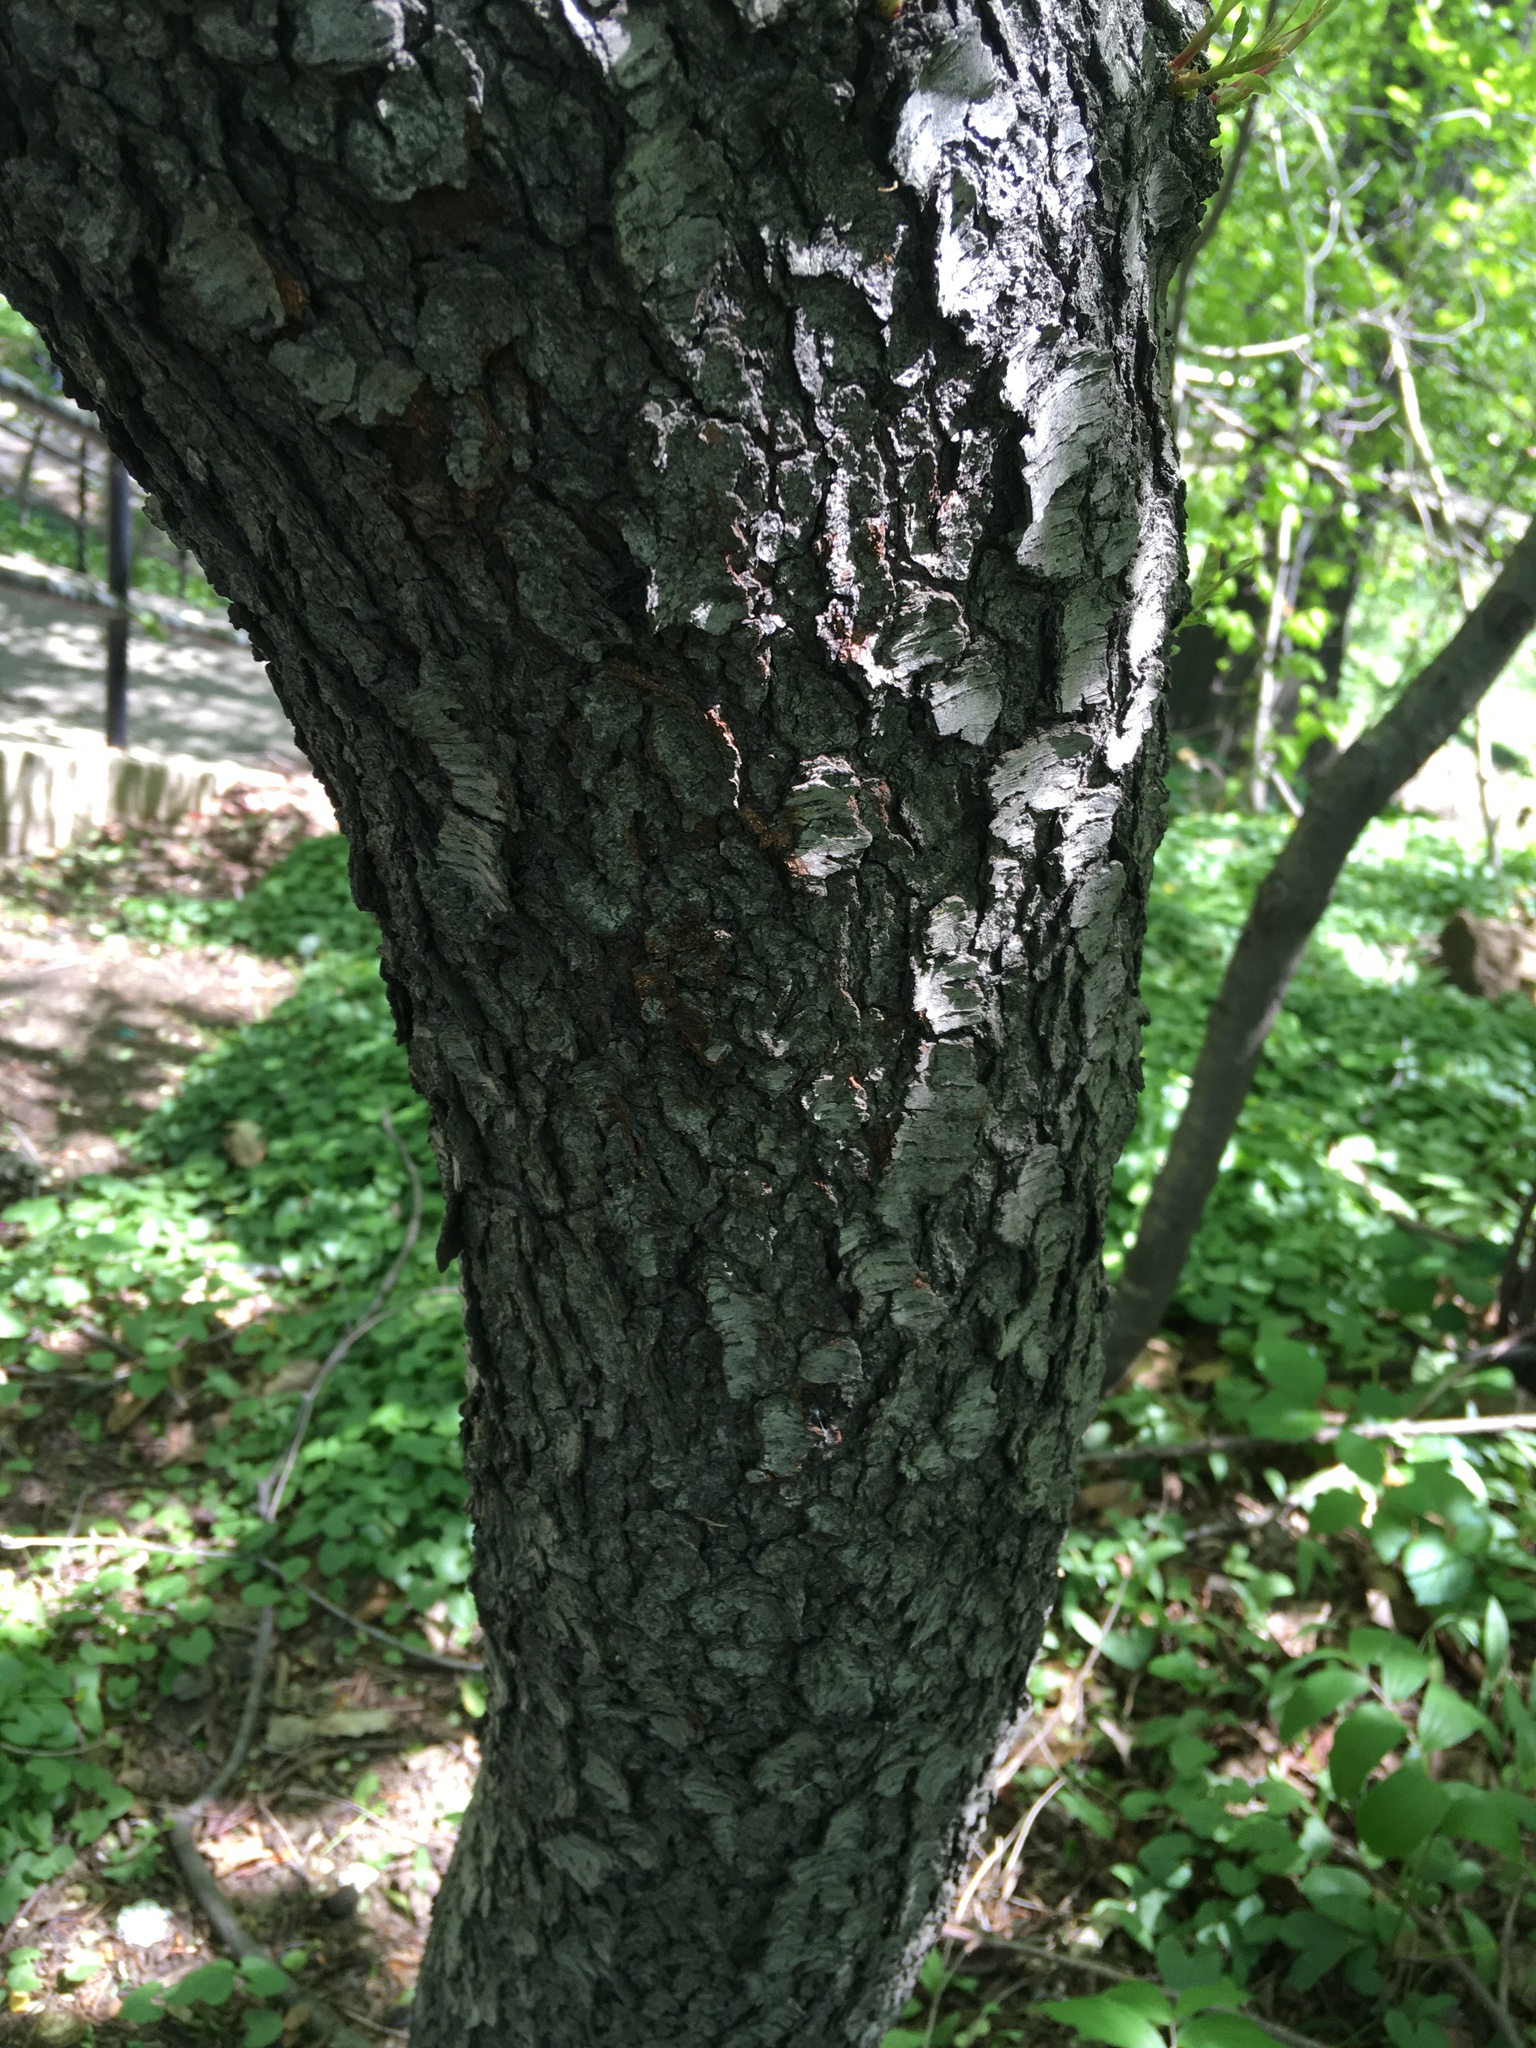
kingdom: Plantae
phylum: Tracheophyta
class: Magnoliopsida
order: Rosales
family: Rosaceae
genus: Prunus
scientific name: Prunus serotina
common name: Black cherry
